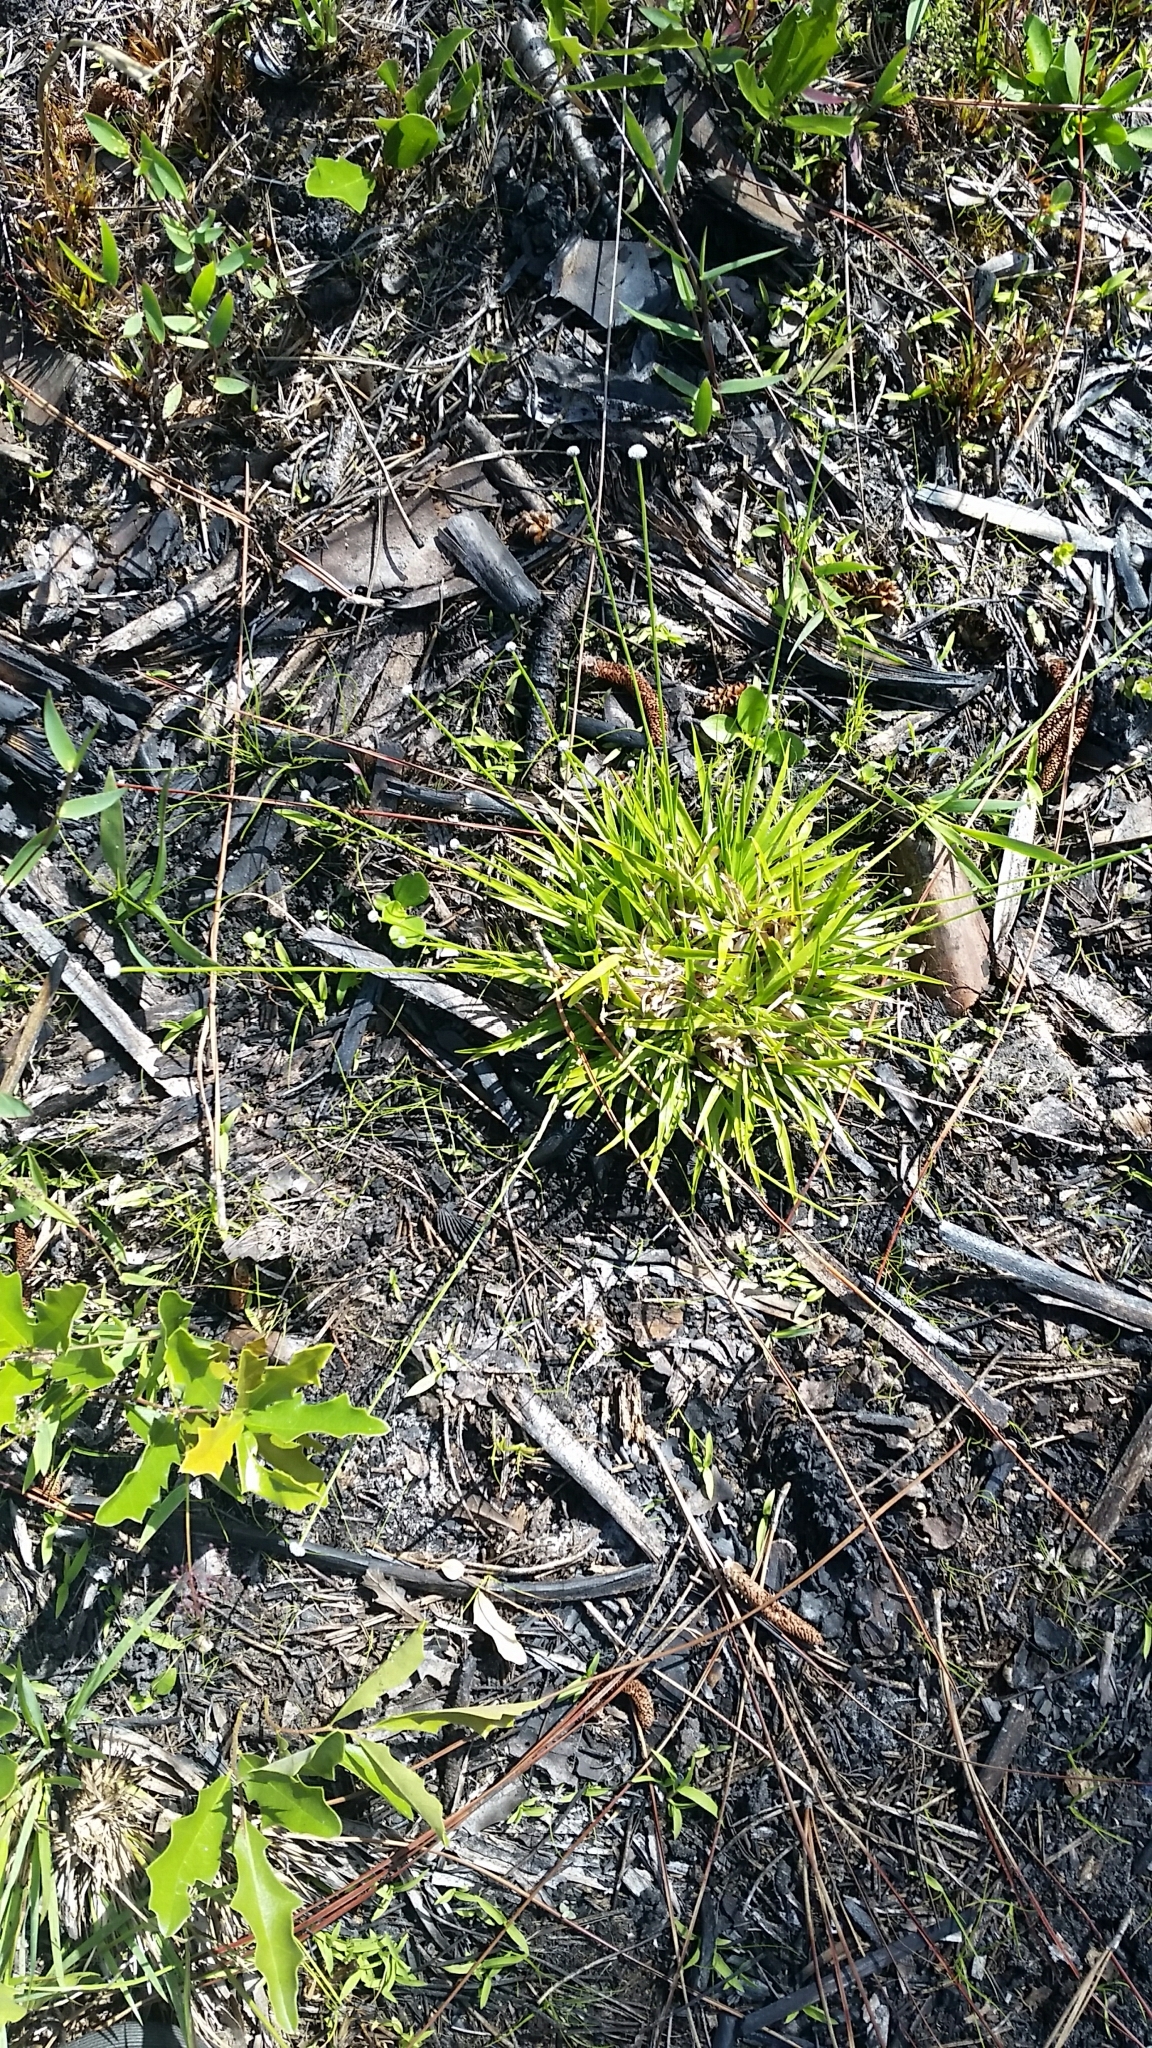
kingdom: Plantae
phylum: Tracheophyta
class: Liliopsida
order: Poales
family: Eriocaulaceae
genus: Paepalanthus
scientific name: Paepalanthus anceps
